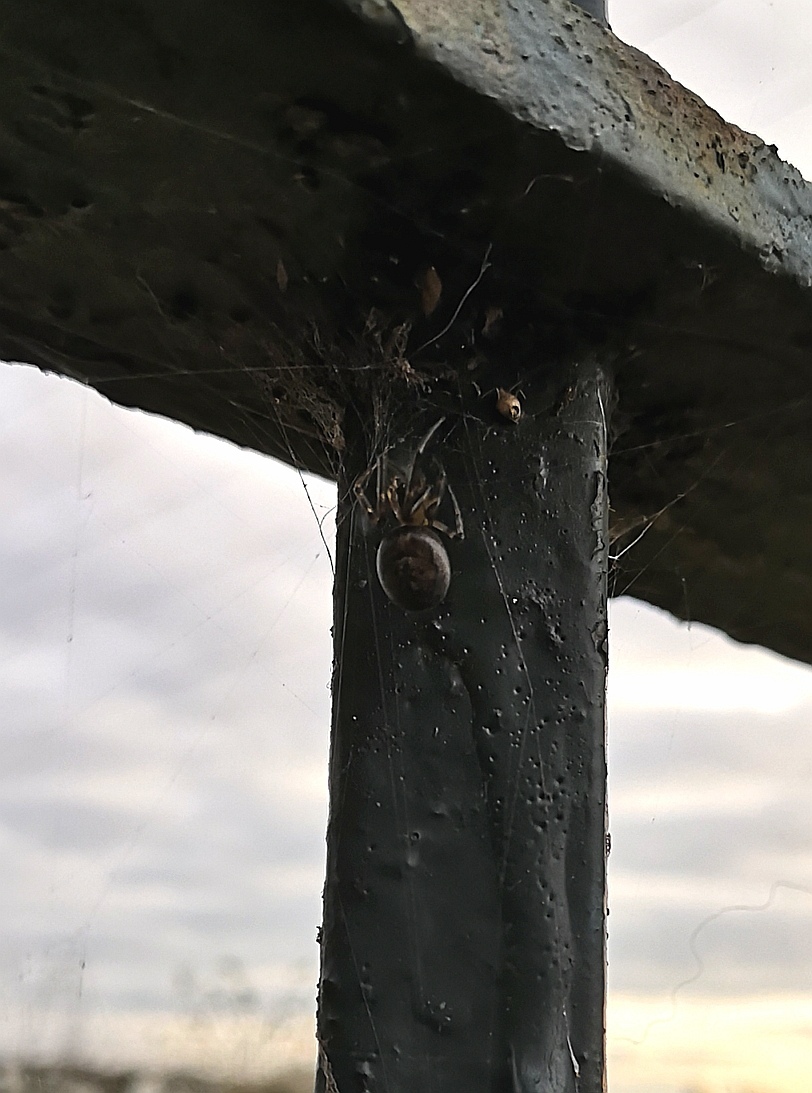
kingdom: Animalia
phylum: Arthropoda
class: Arachnida
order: Araneae
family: Araneidae
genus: Zygiella
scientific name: Zygiella x-notata
